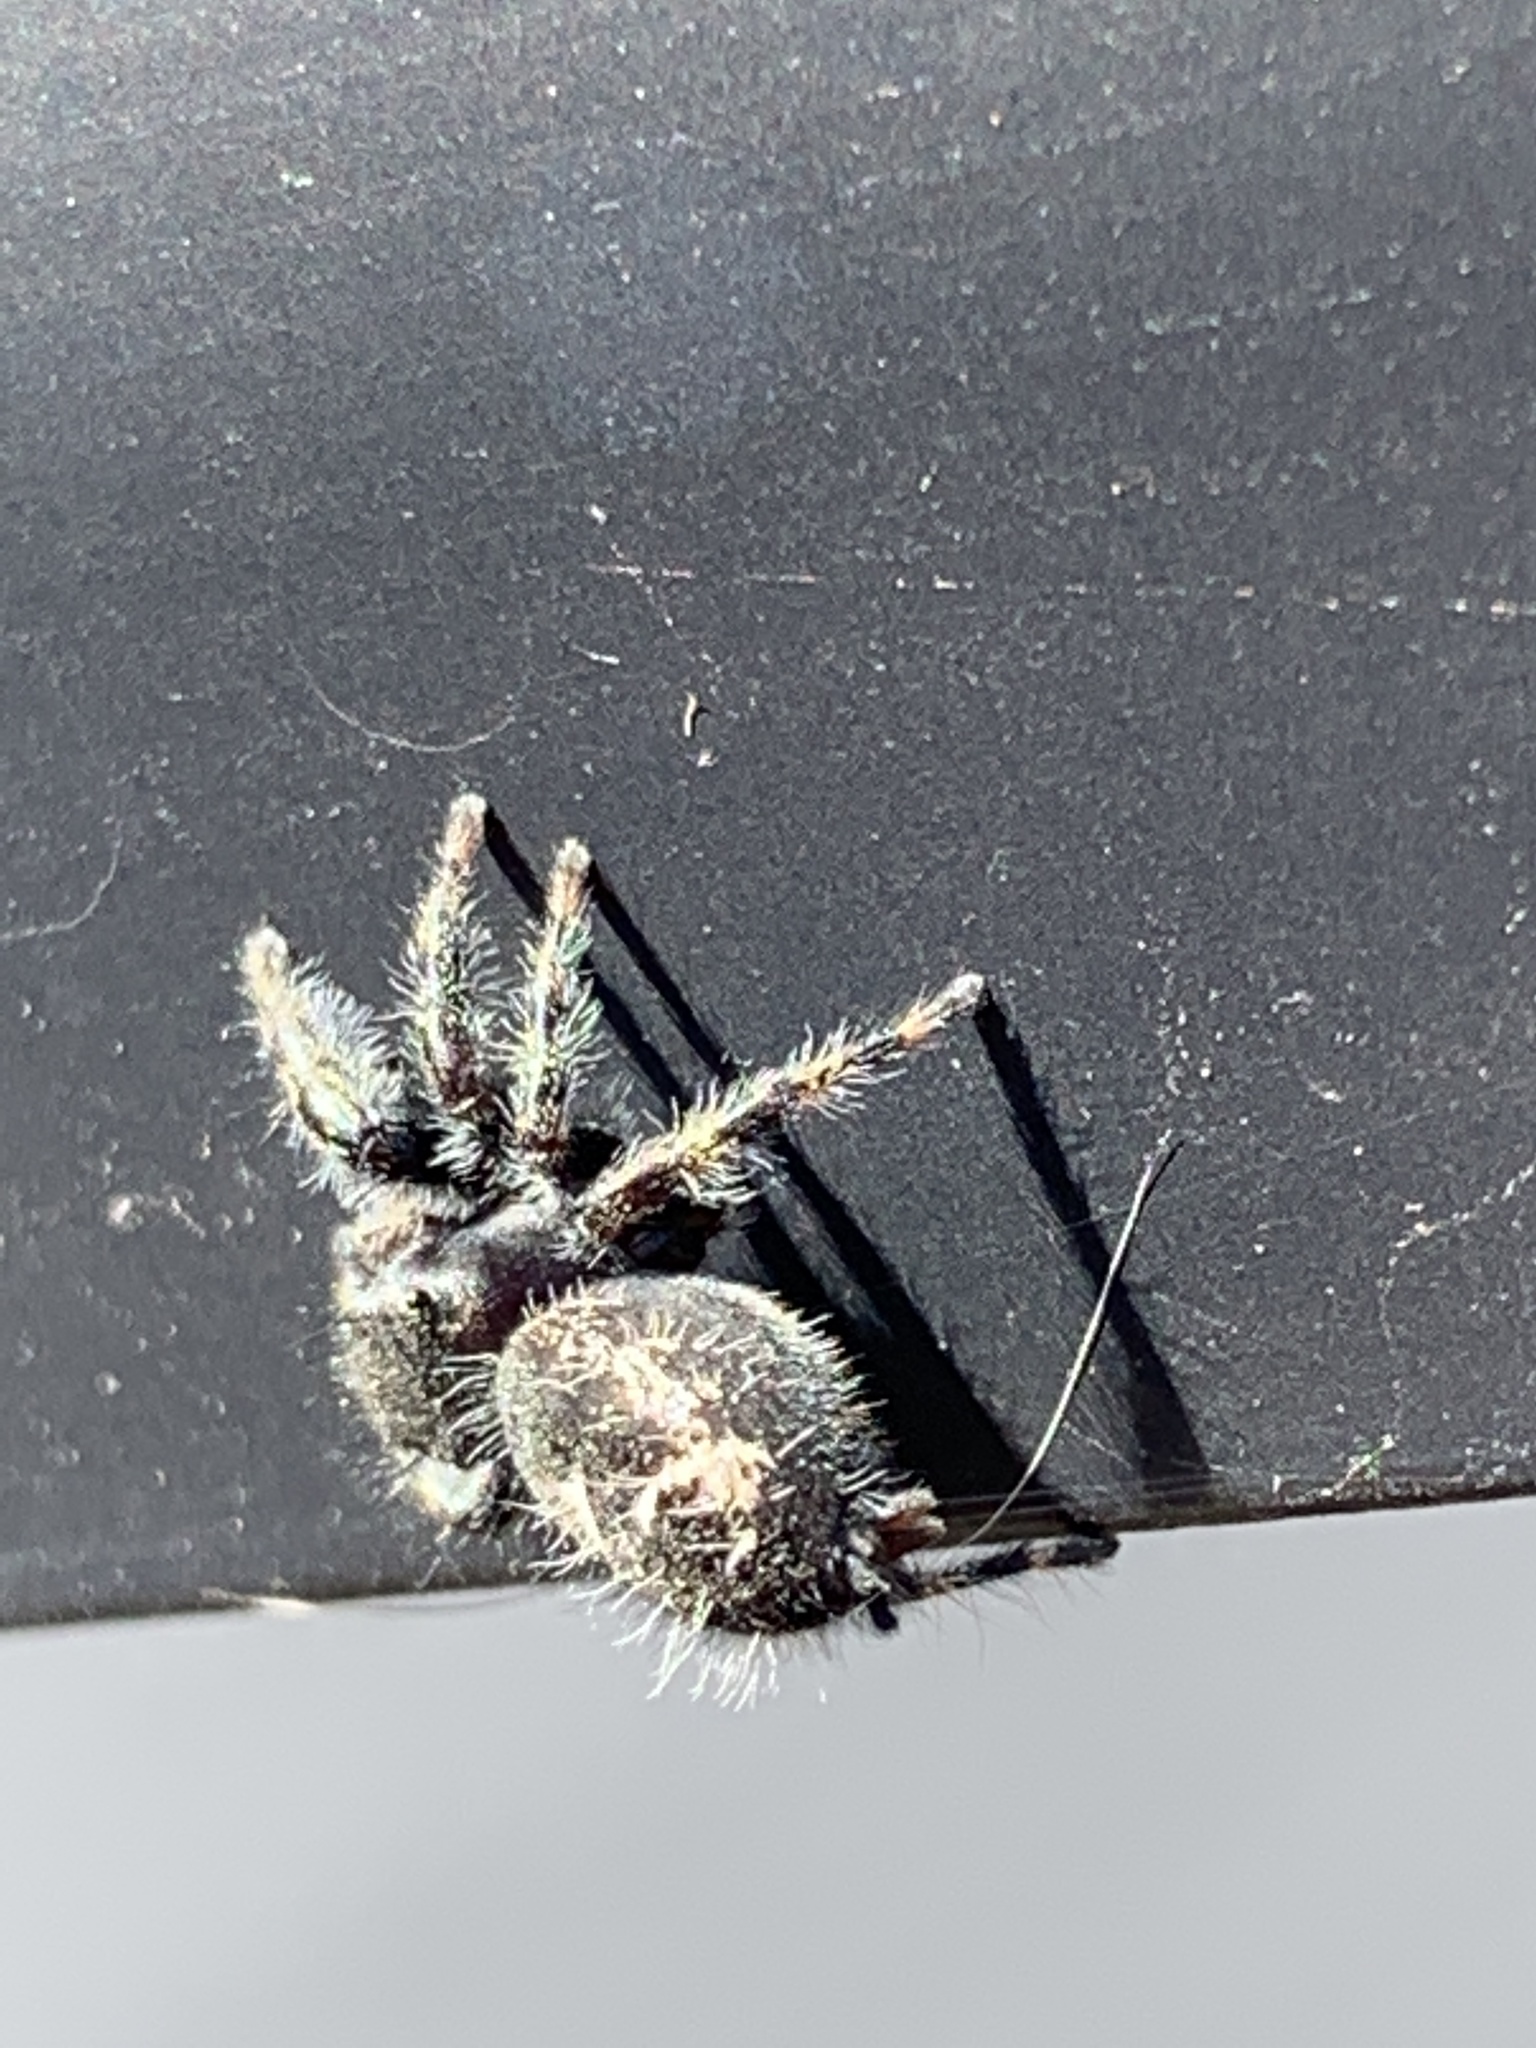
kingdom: Animalia
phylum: Arthropoda
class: Arachnida
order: Araneae
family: Salticidae
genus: Phidippus
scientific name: Phidippus audax
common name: Bold jumper
